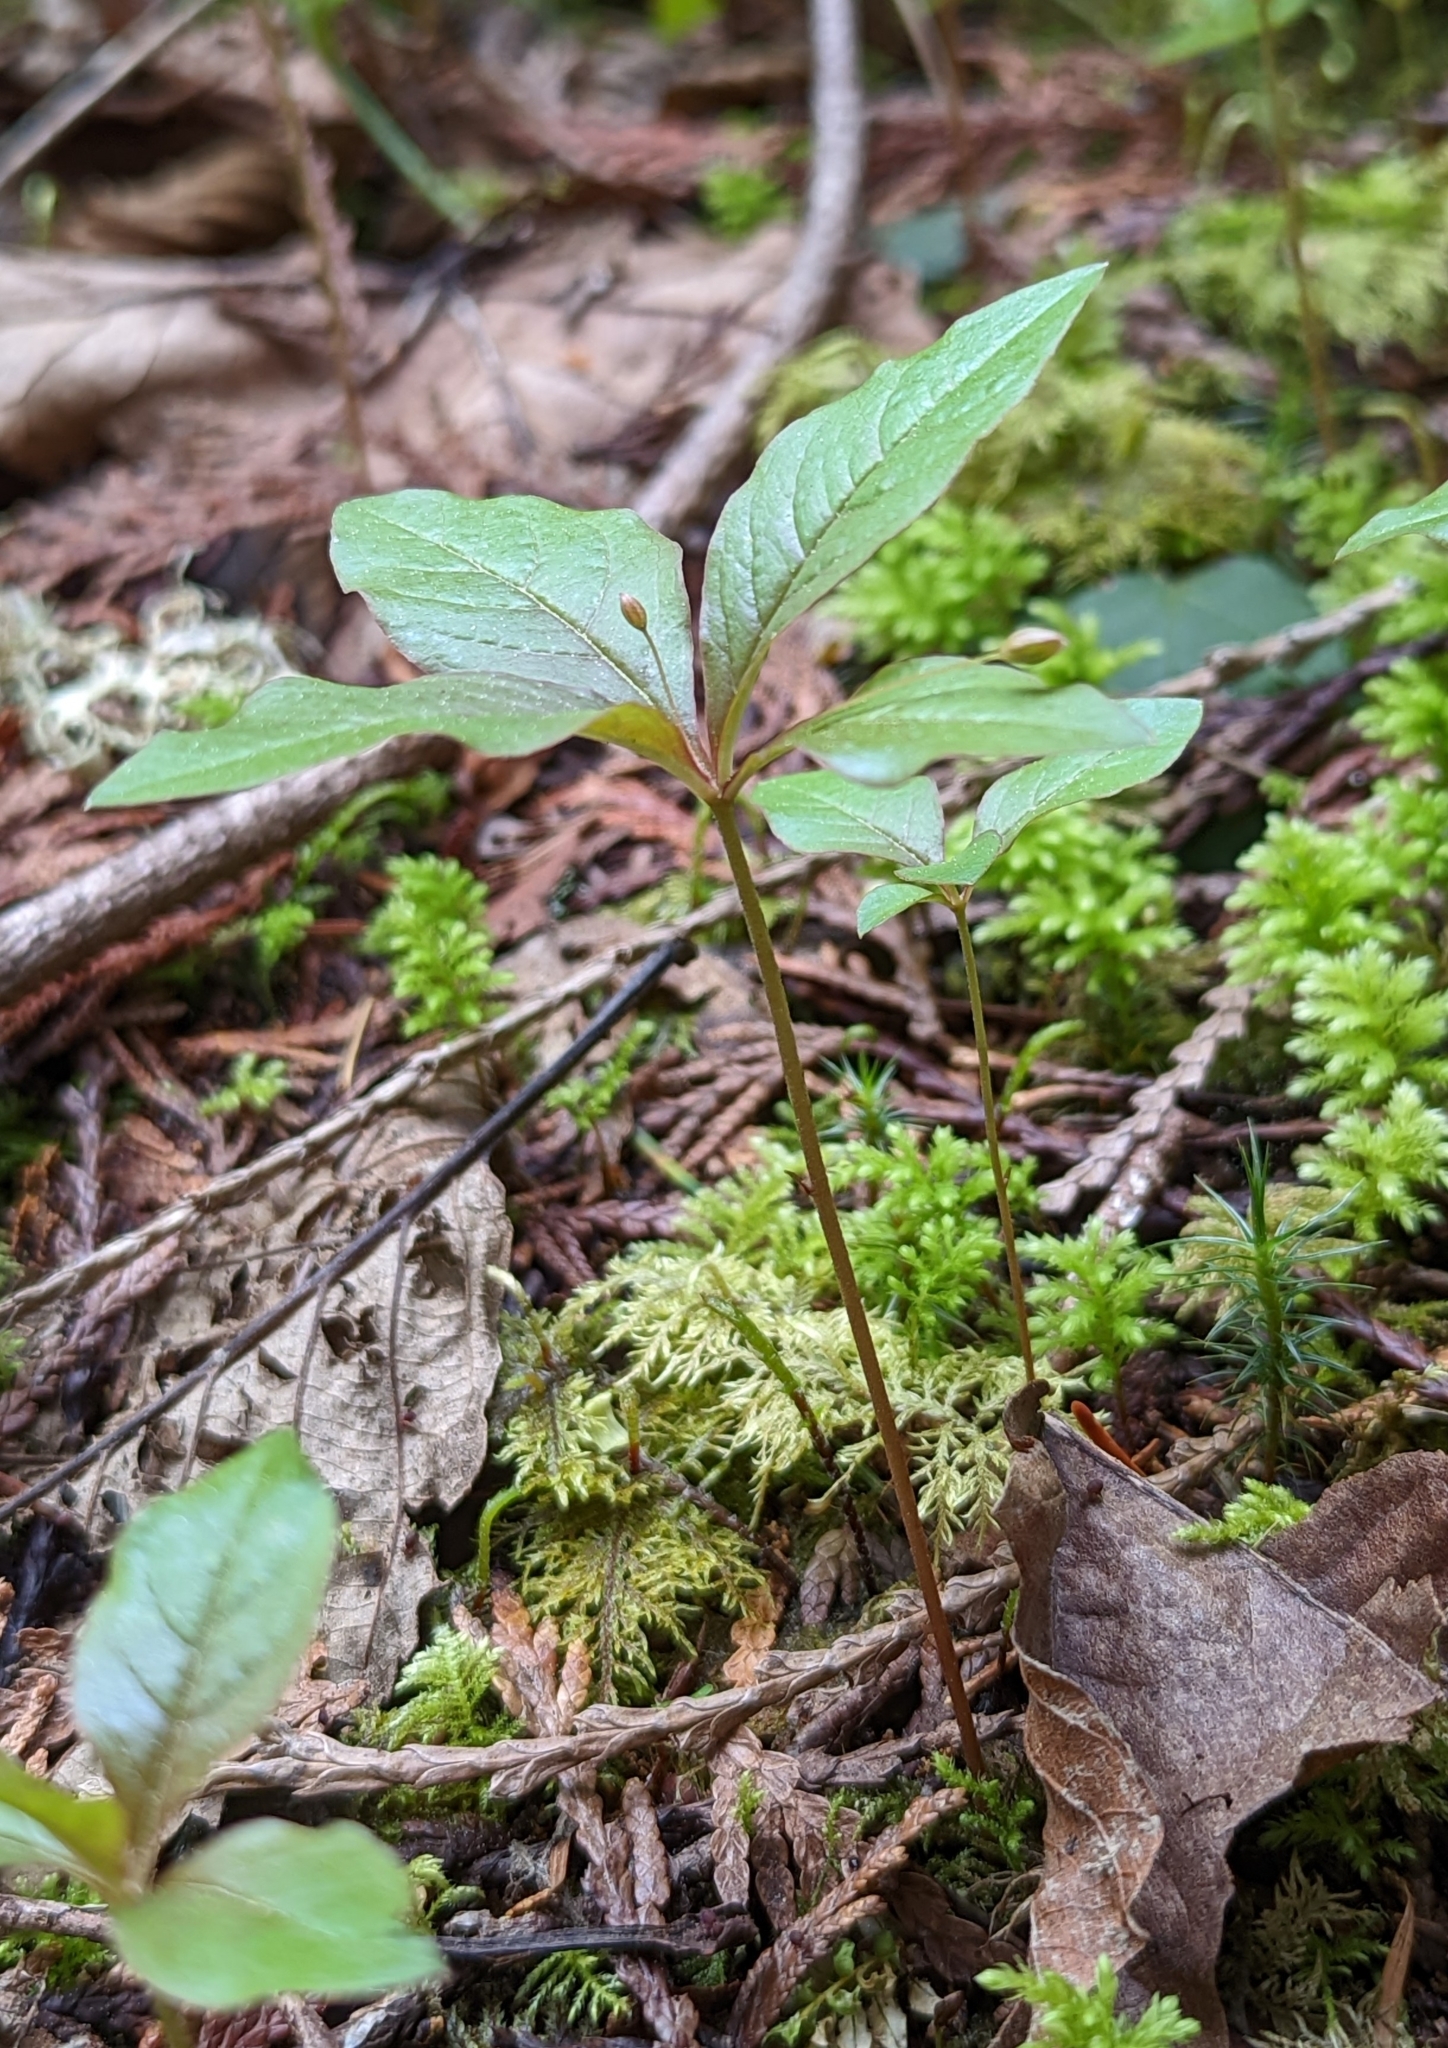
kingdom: Plantae
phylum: Tracheophyta
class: Magnoliopsida
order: Ericales
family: Primulaceae
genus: Lysimachia
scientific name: Lysimachia latifolia
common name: Pacific starflower
